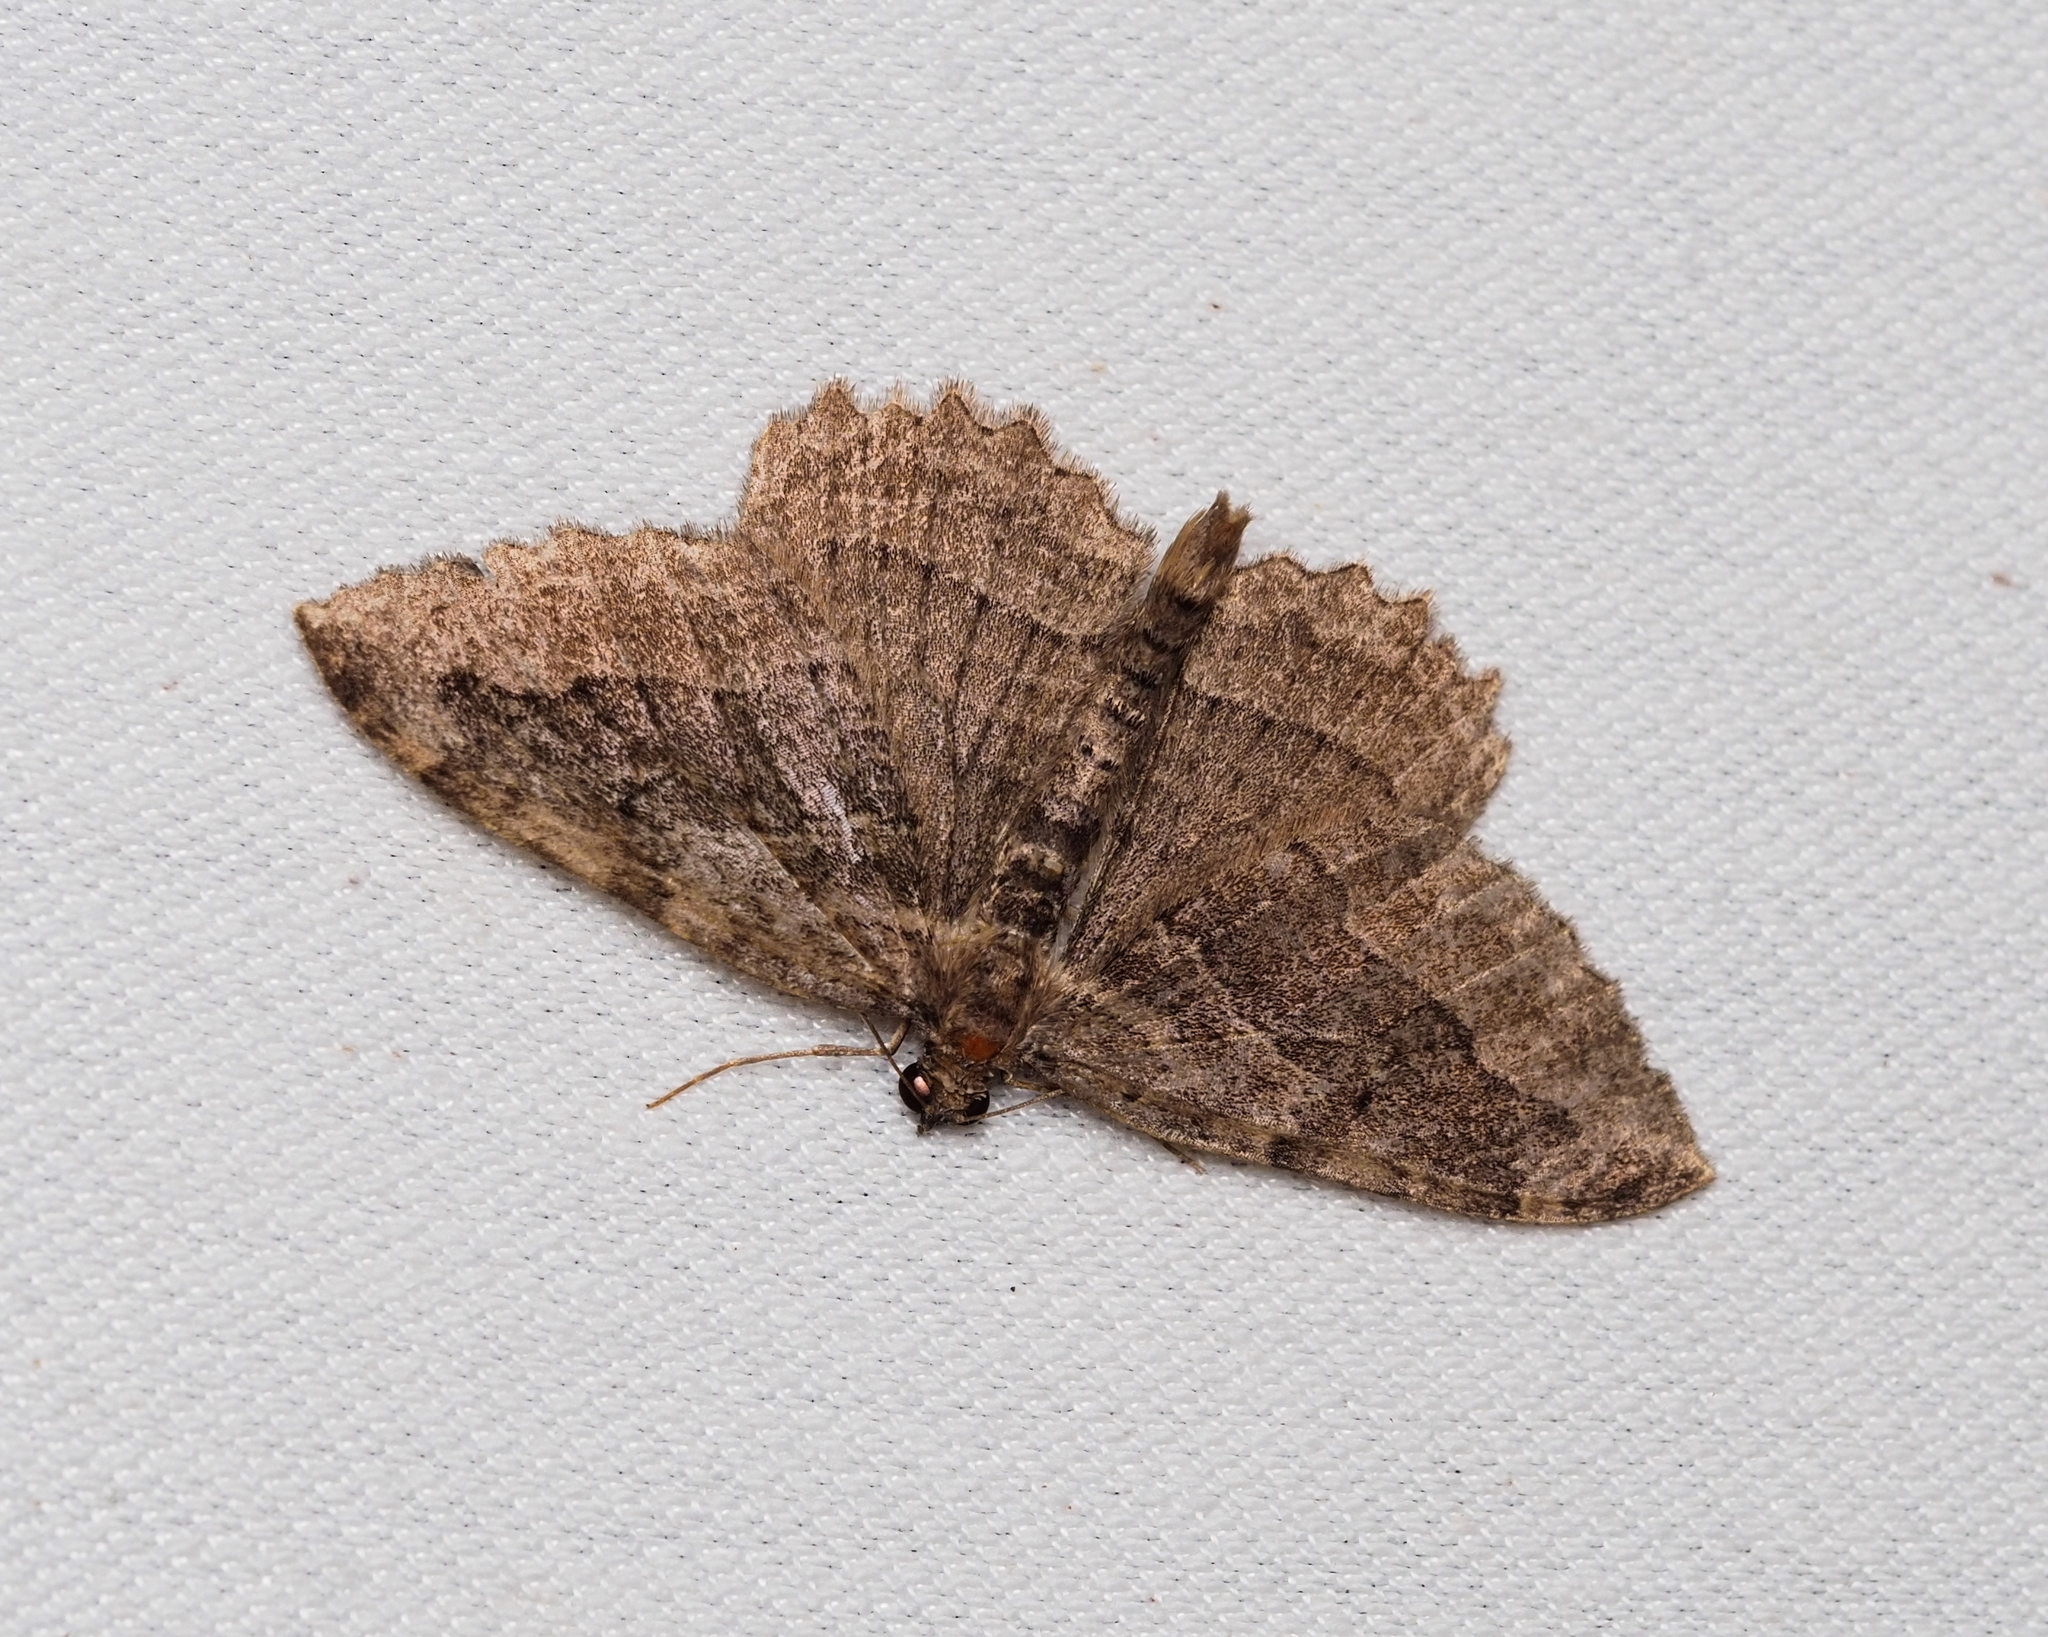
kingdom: Animalia
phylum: Arthropoda
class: Insecta
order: Lepidoptera
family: Geometridae
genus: Philereme
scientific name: Philereme transversata
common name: Dark umber
